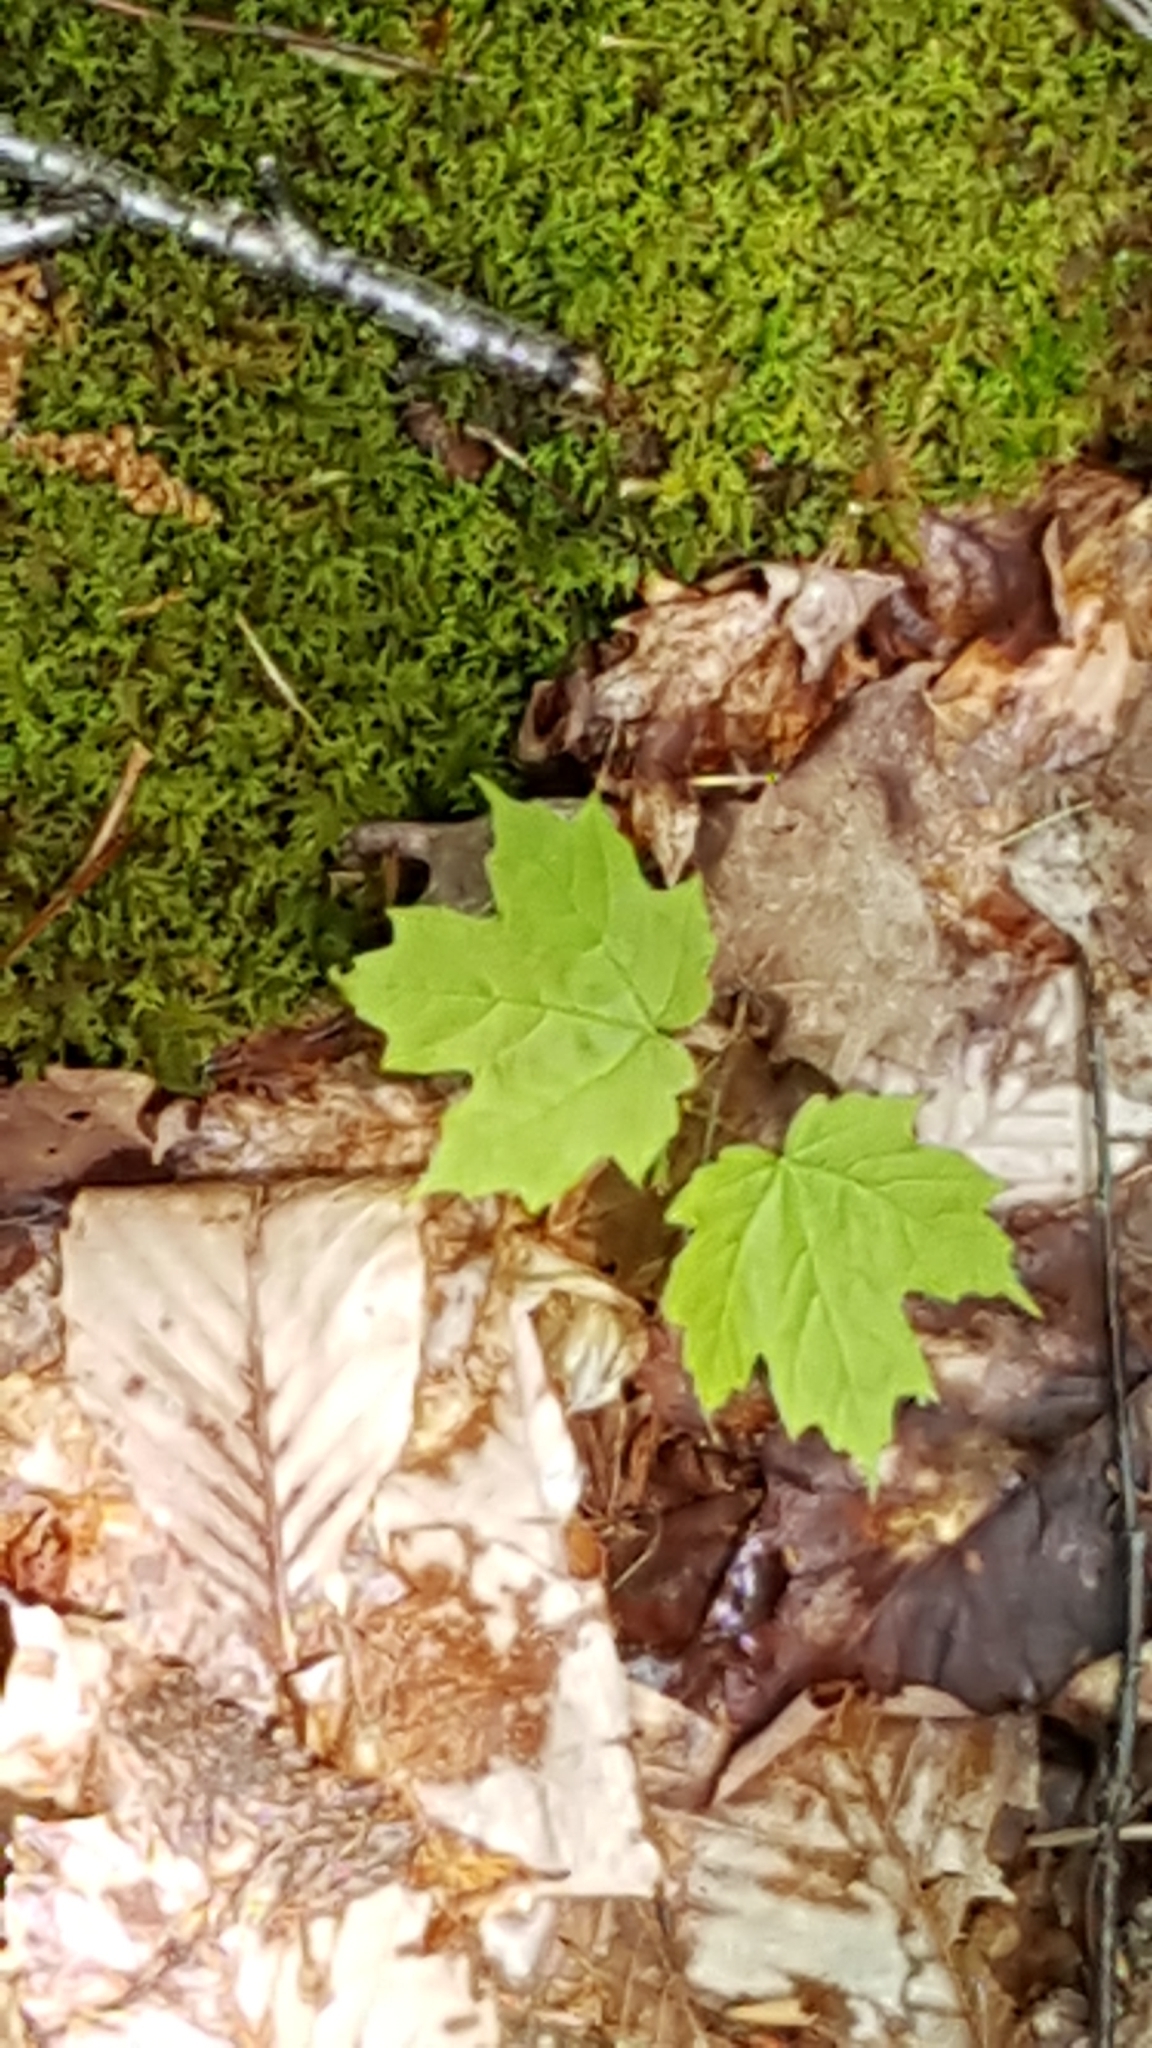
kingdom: Plantae
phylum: Tracheophyta
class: Magnoliopsida
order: Sapindales
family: Sapindaceae
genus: Acer
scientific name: Acer saccharum
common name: Sugar maple
